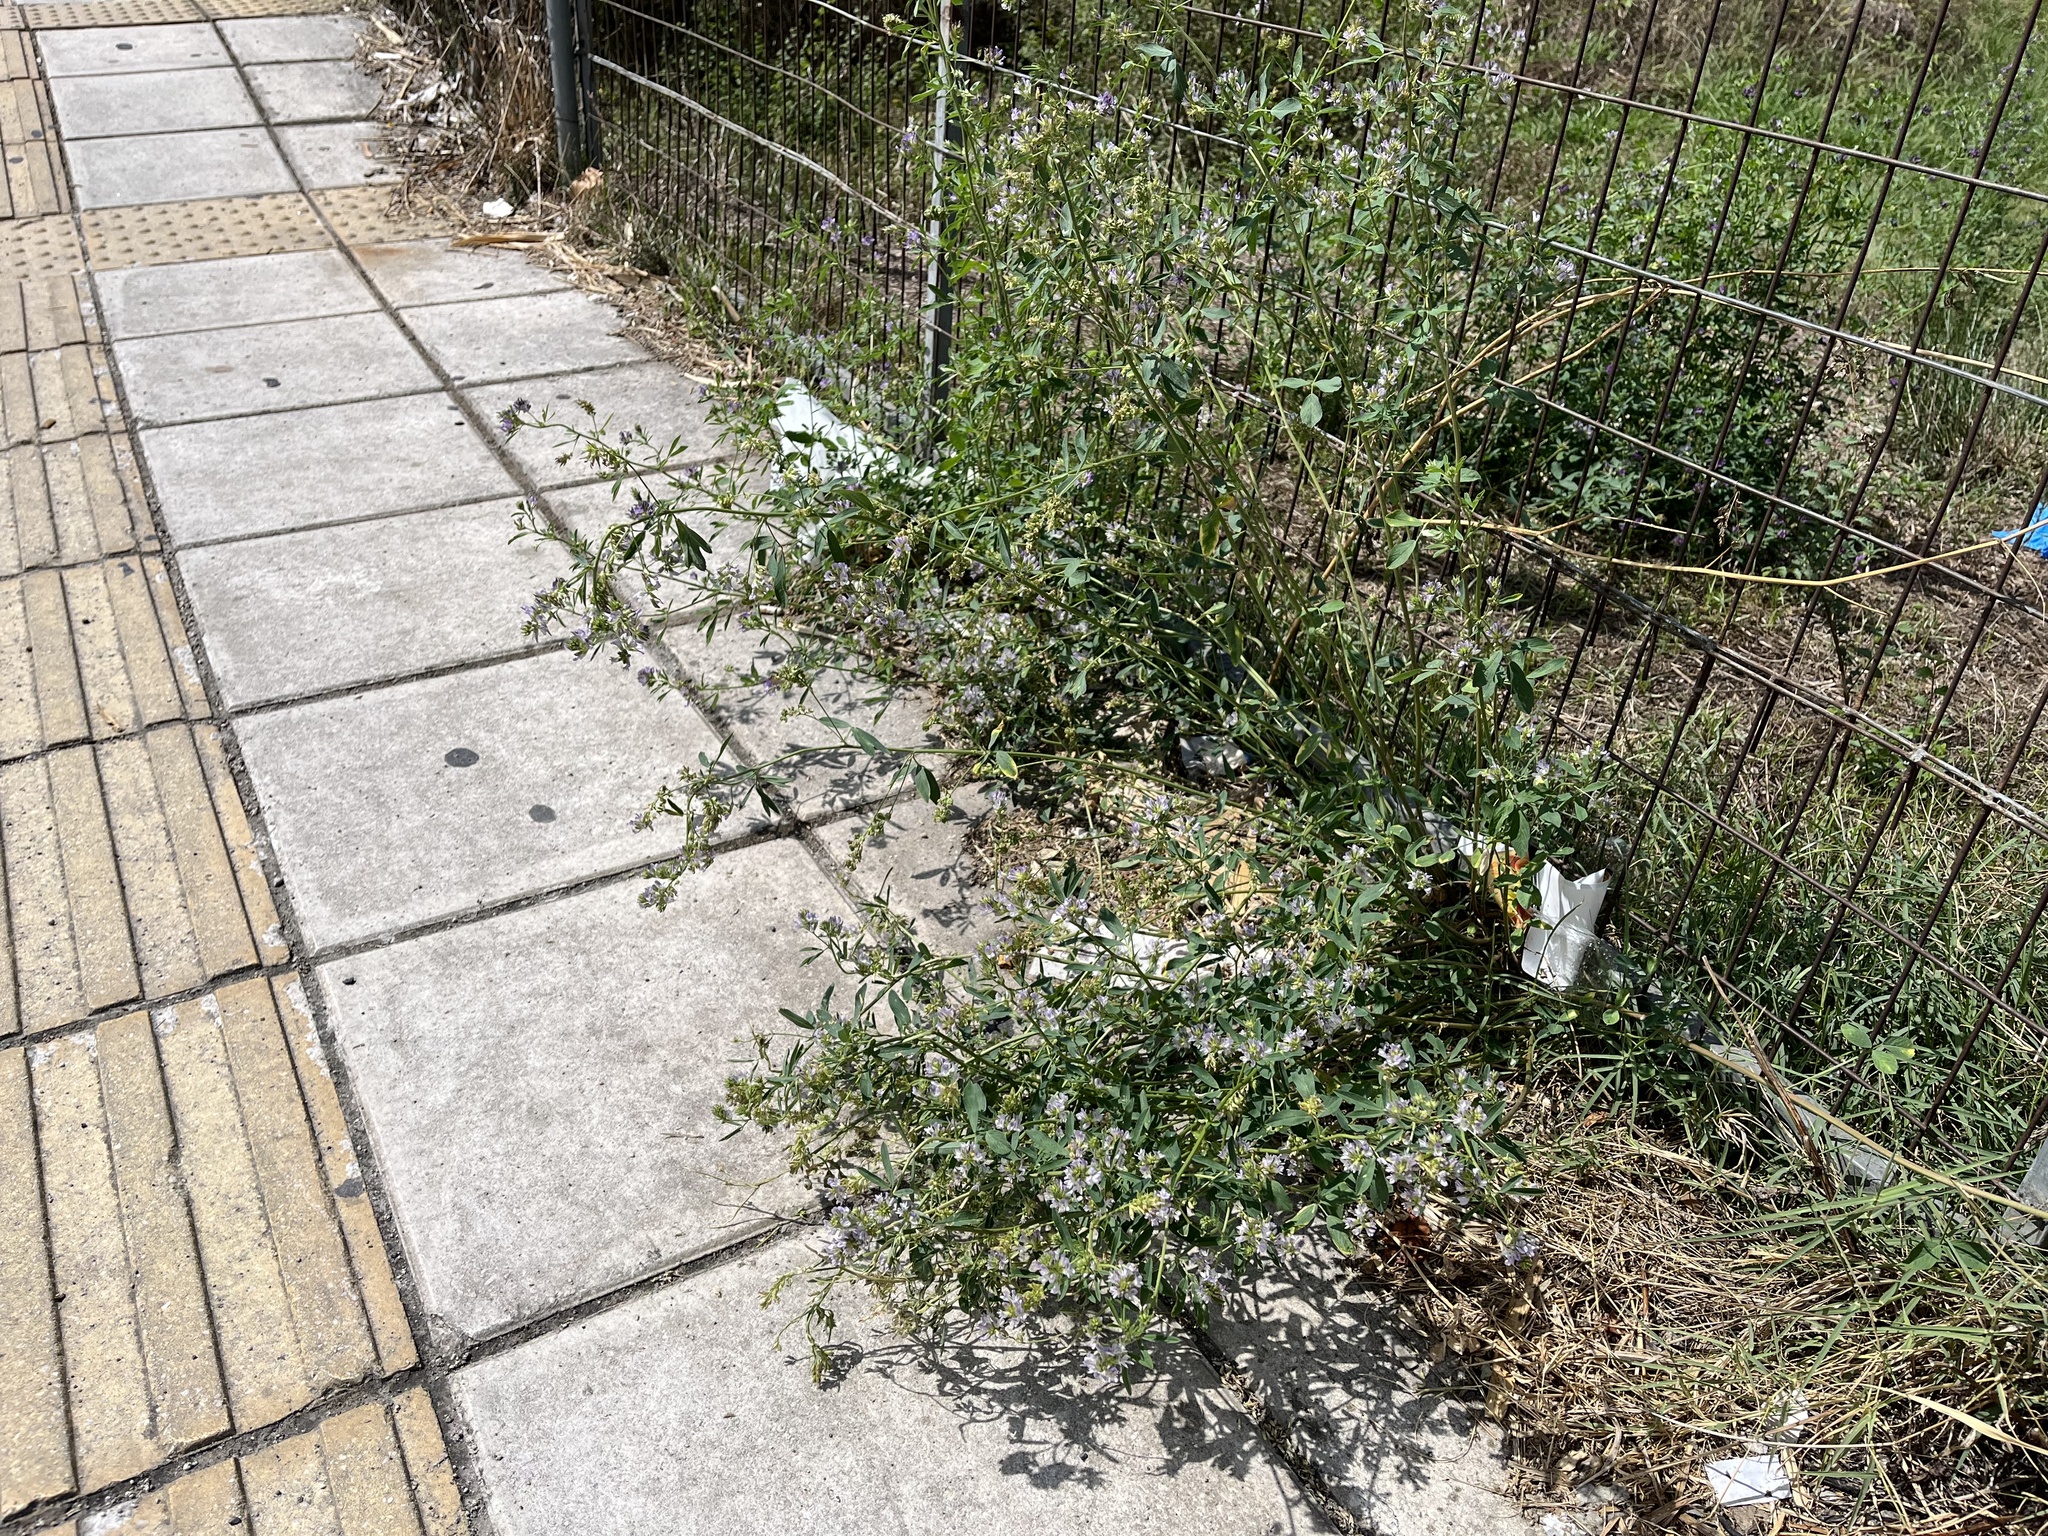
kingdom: Plantae
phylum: Tracheophyta
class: Magnoliopsida
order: Fabales
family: Fabaceae
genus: Medicago
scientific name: Medicago sativa
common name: Alfalfa
